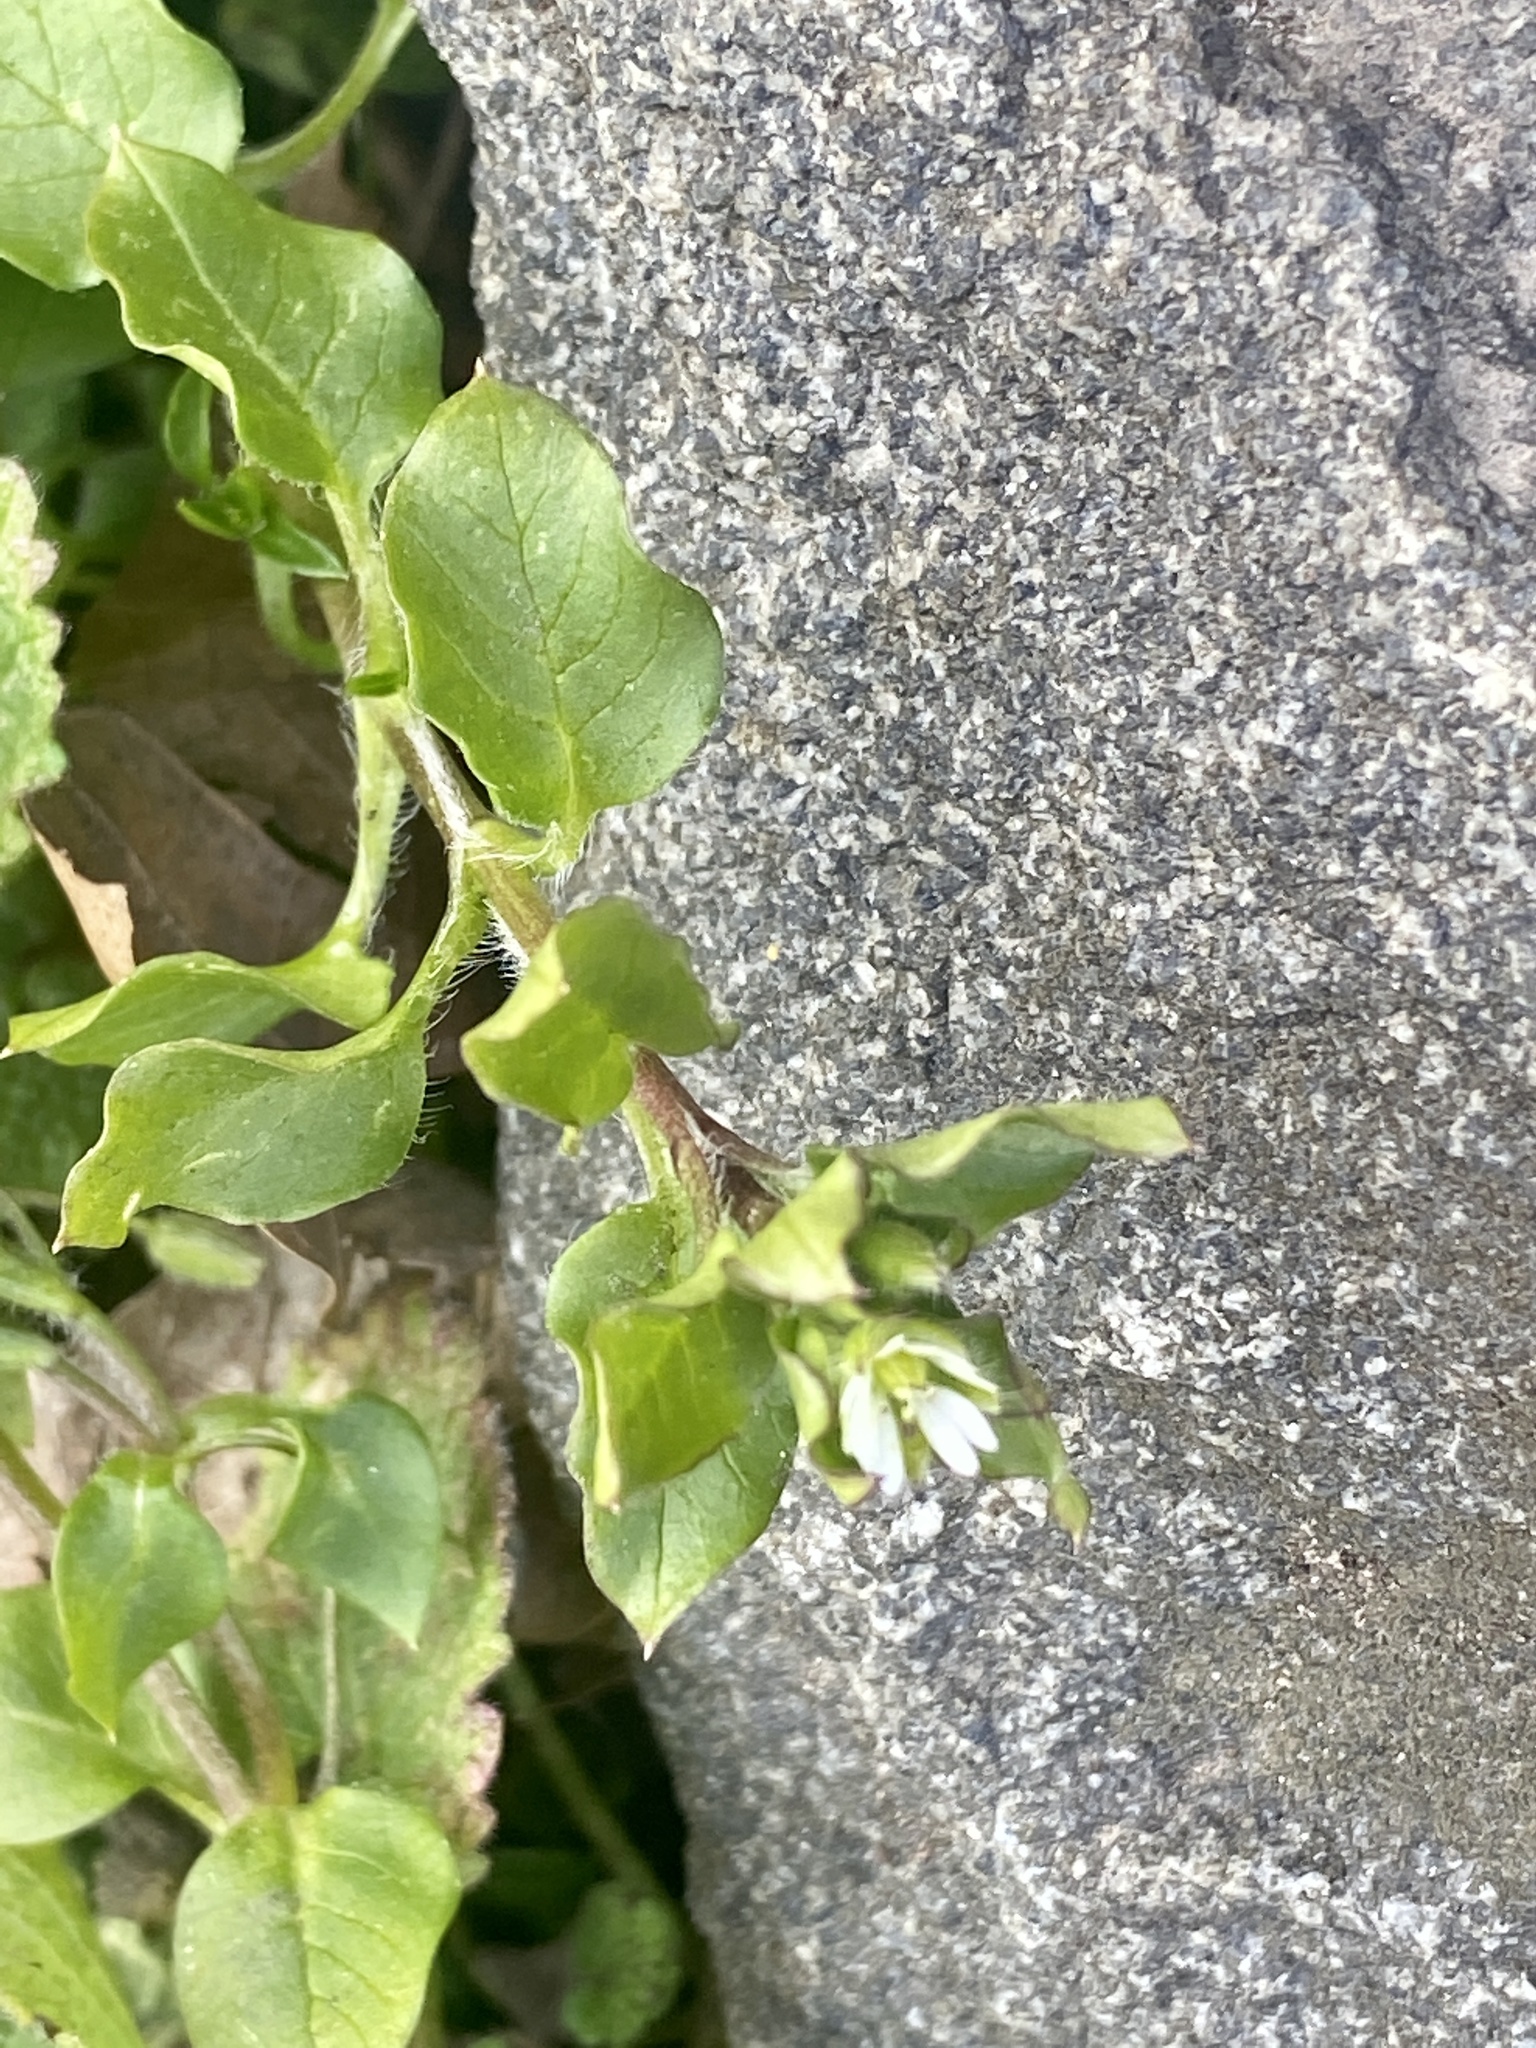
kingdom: Plantae
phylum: Tracheophyta
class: Magnoliopsida
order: Caryophyllales
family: Caryophyllaceae
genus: Stellaria
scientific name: Stellaria media
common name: Common chickweed
